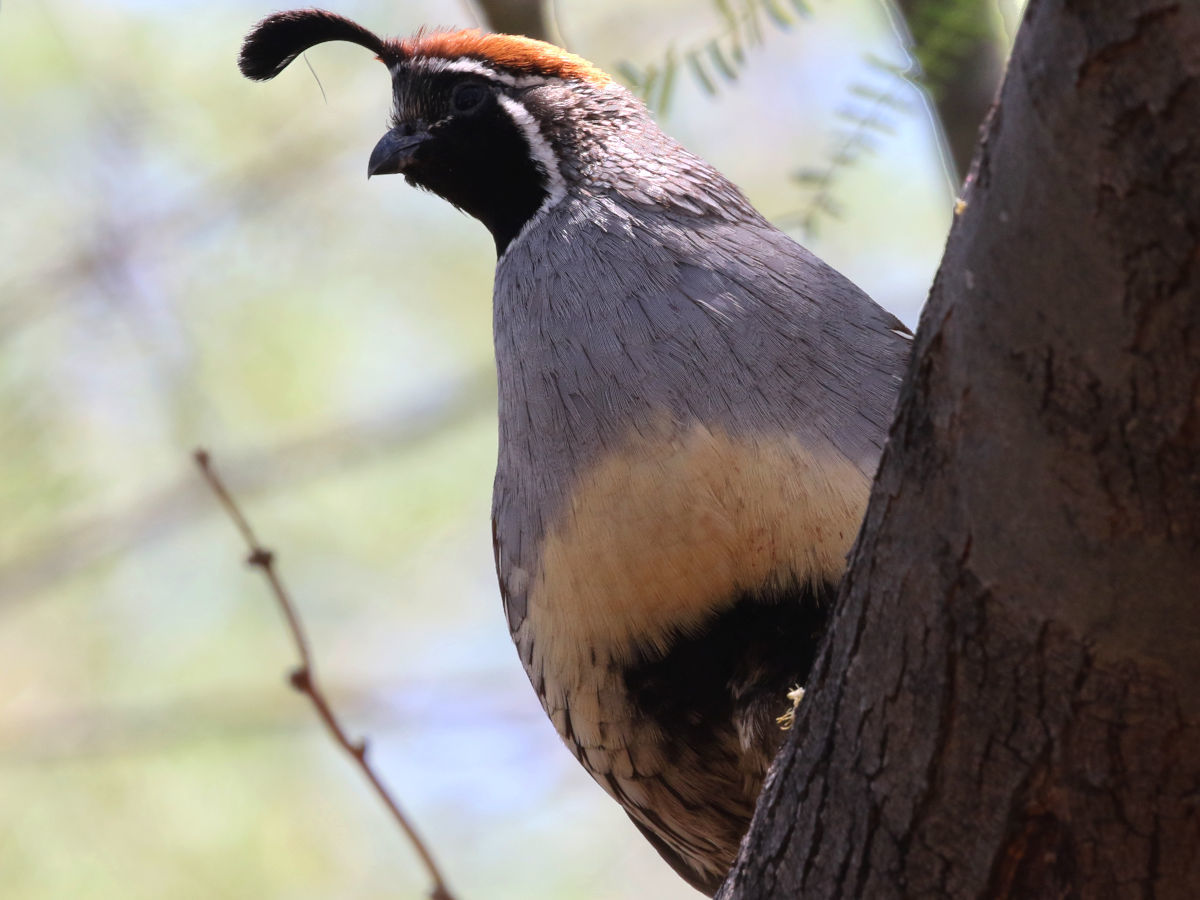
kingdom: Animalia
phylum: Chordata
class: Aves
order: Galliformes
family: Odontophoridae
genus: Callipepla
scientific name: Callipepla gambelii
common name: Gambel's quail
